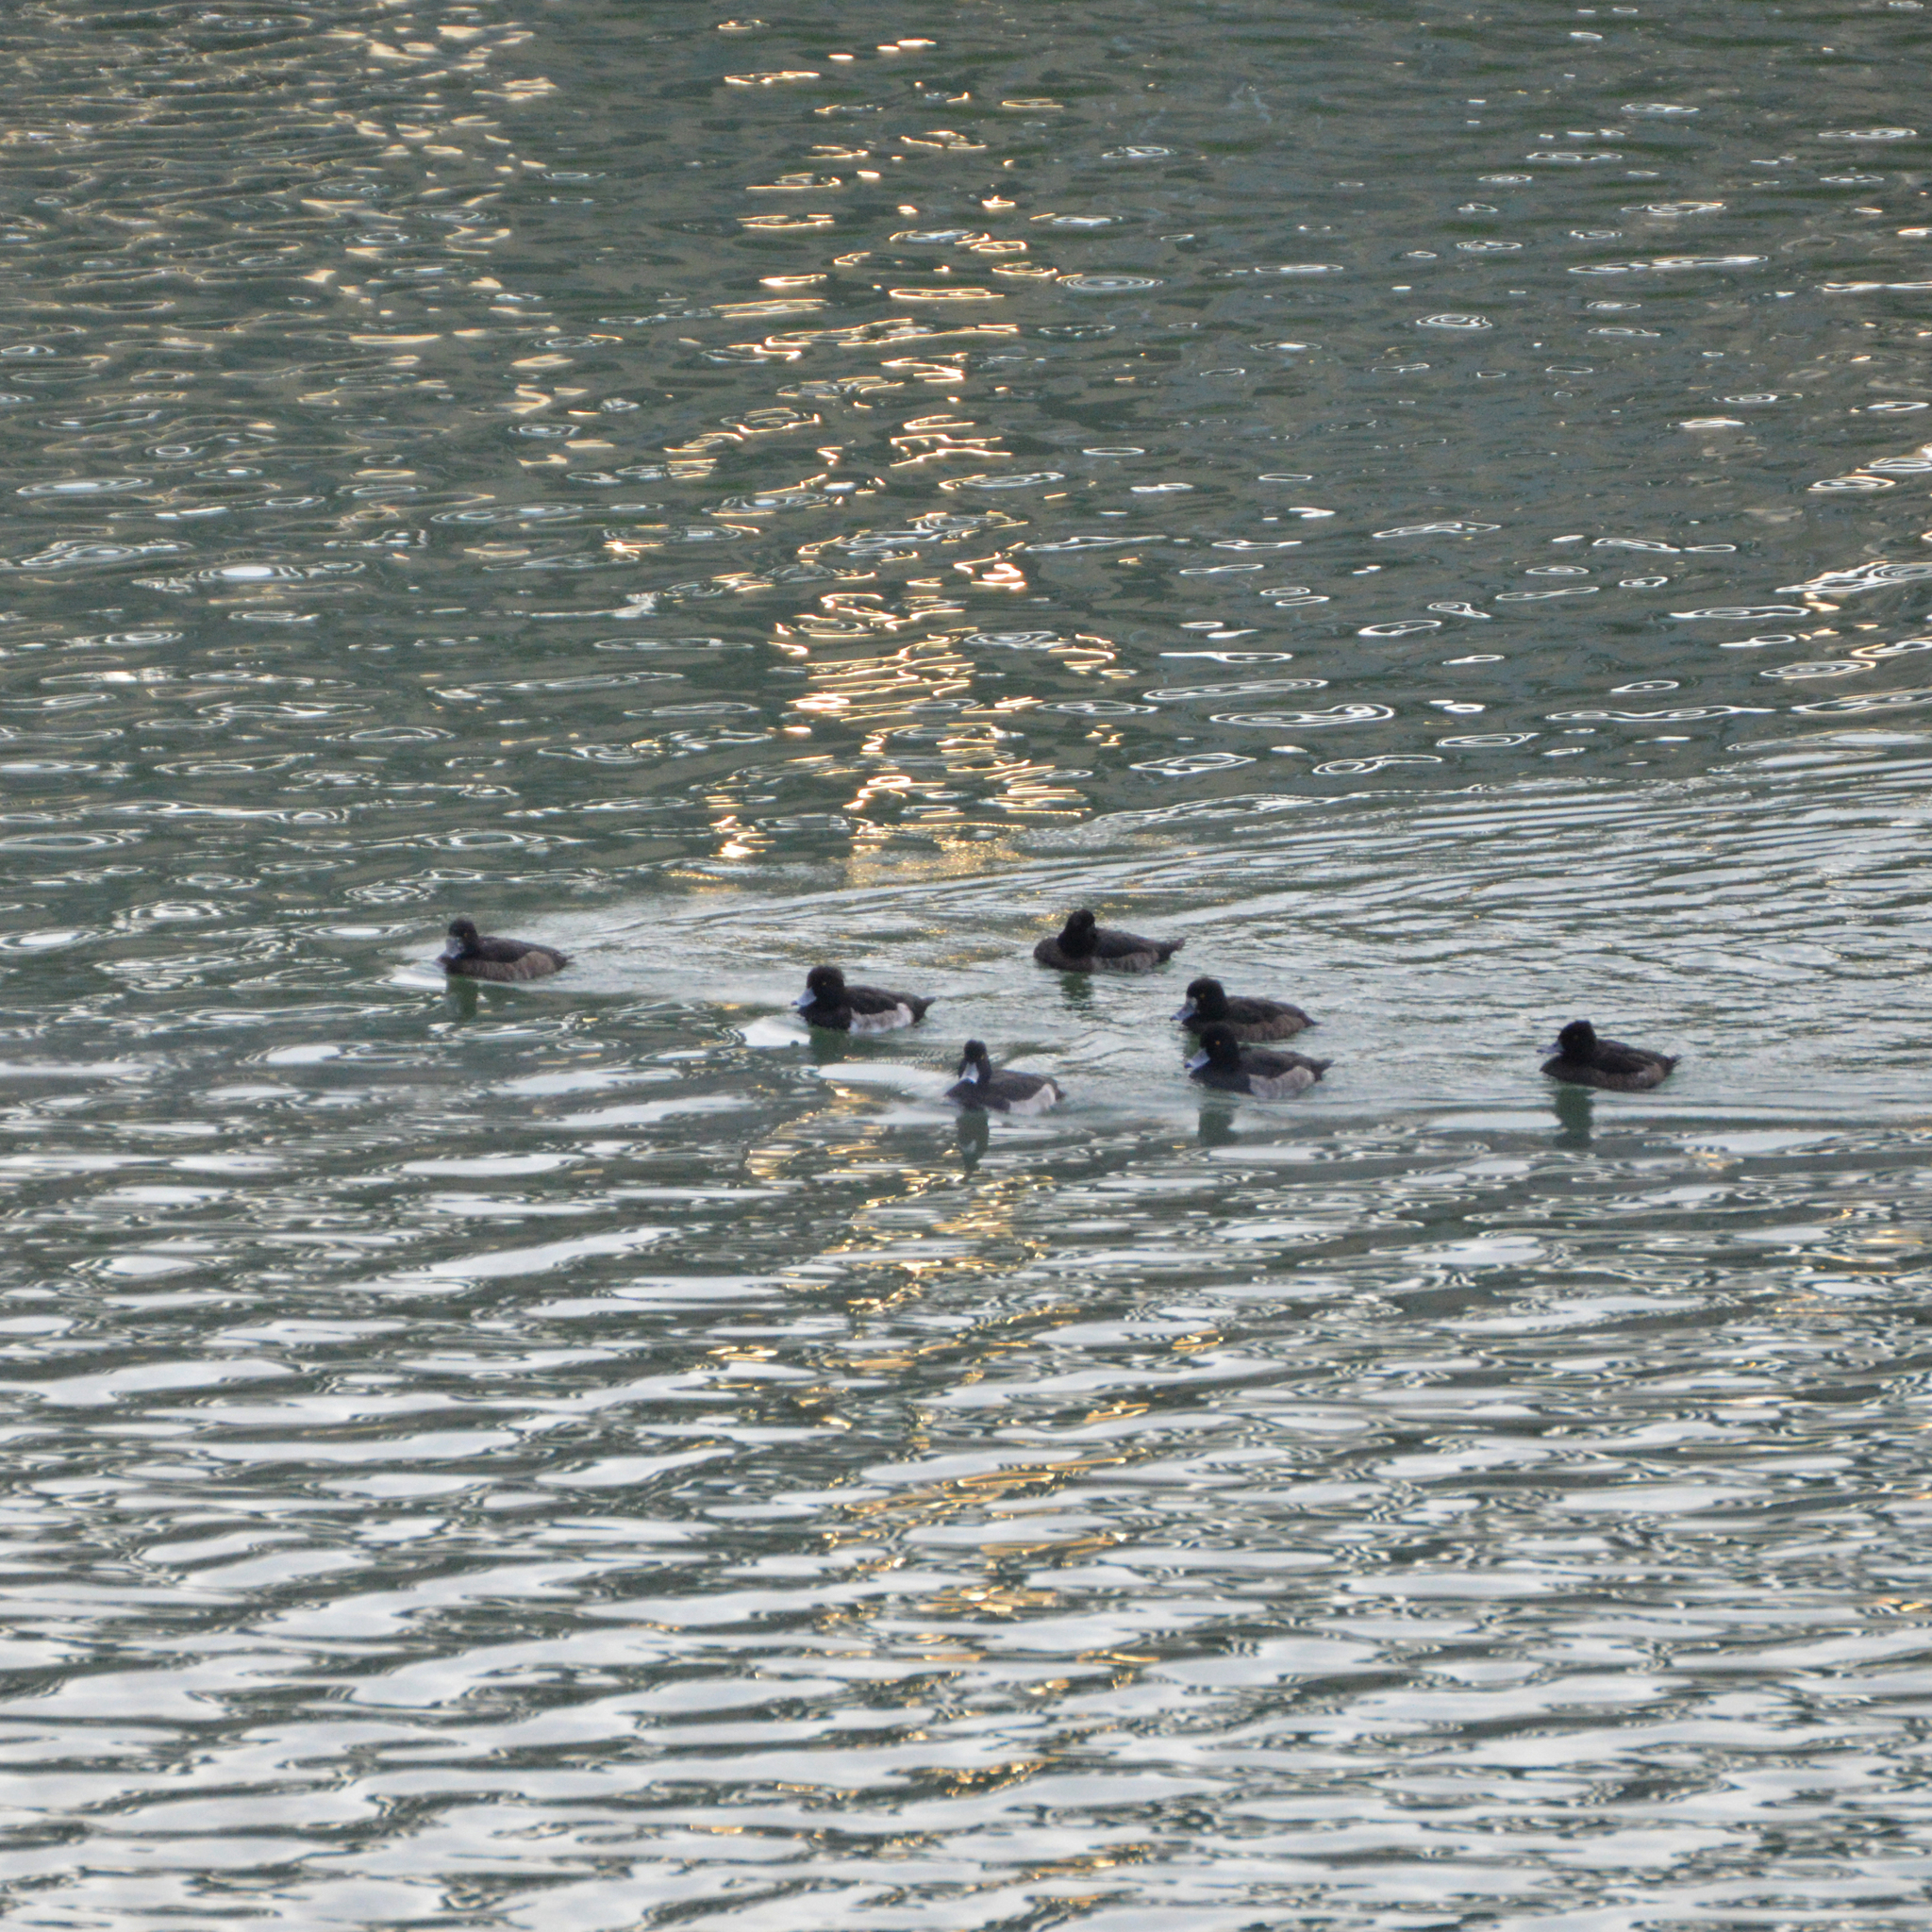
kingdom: Animalia
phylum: Chordata
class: Aves
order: Anseriformes
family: Anatidae
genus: Aythya
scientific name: Aythya fuligula
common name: Tufted duck
